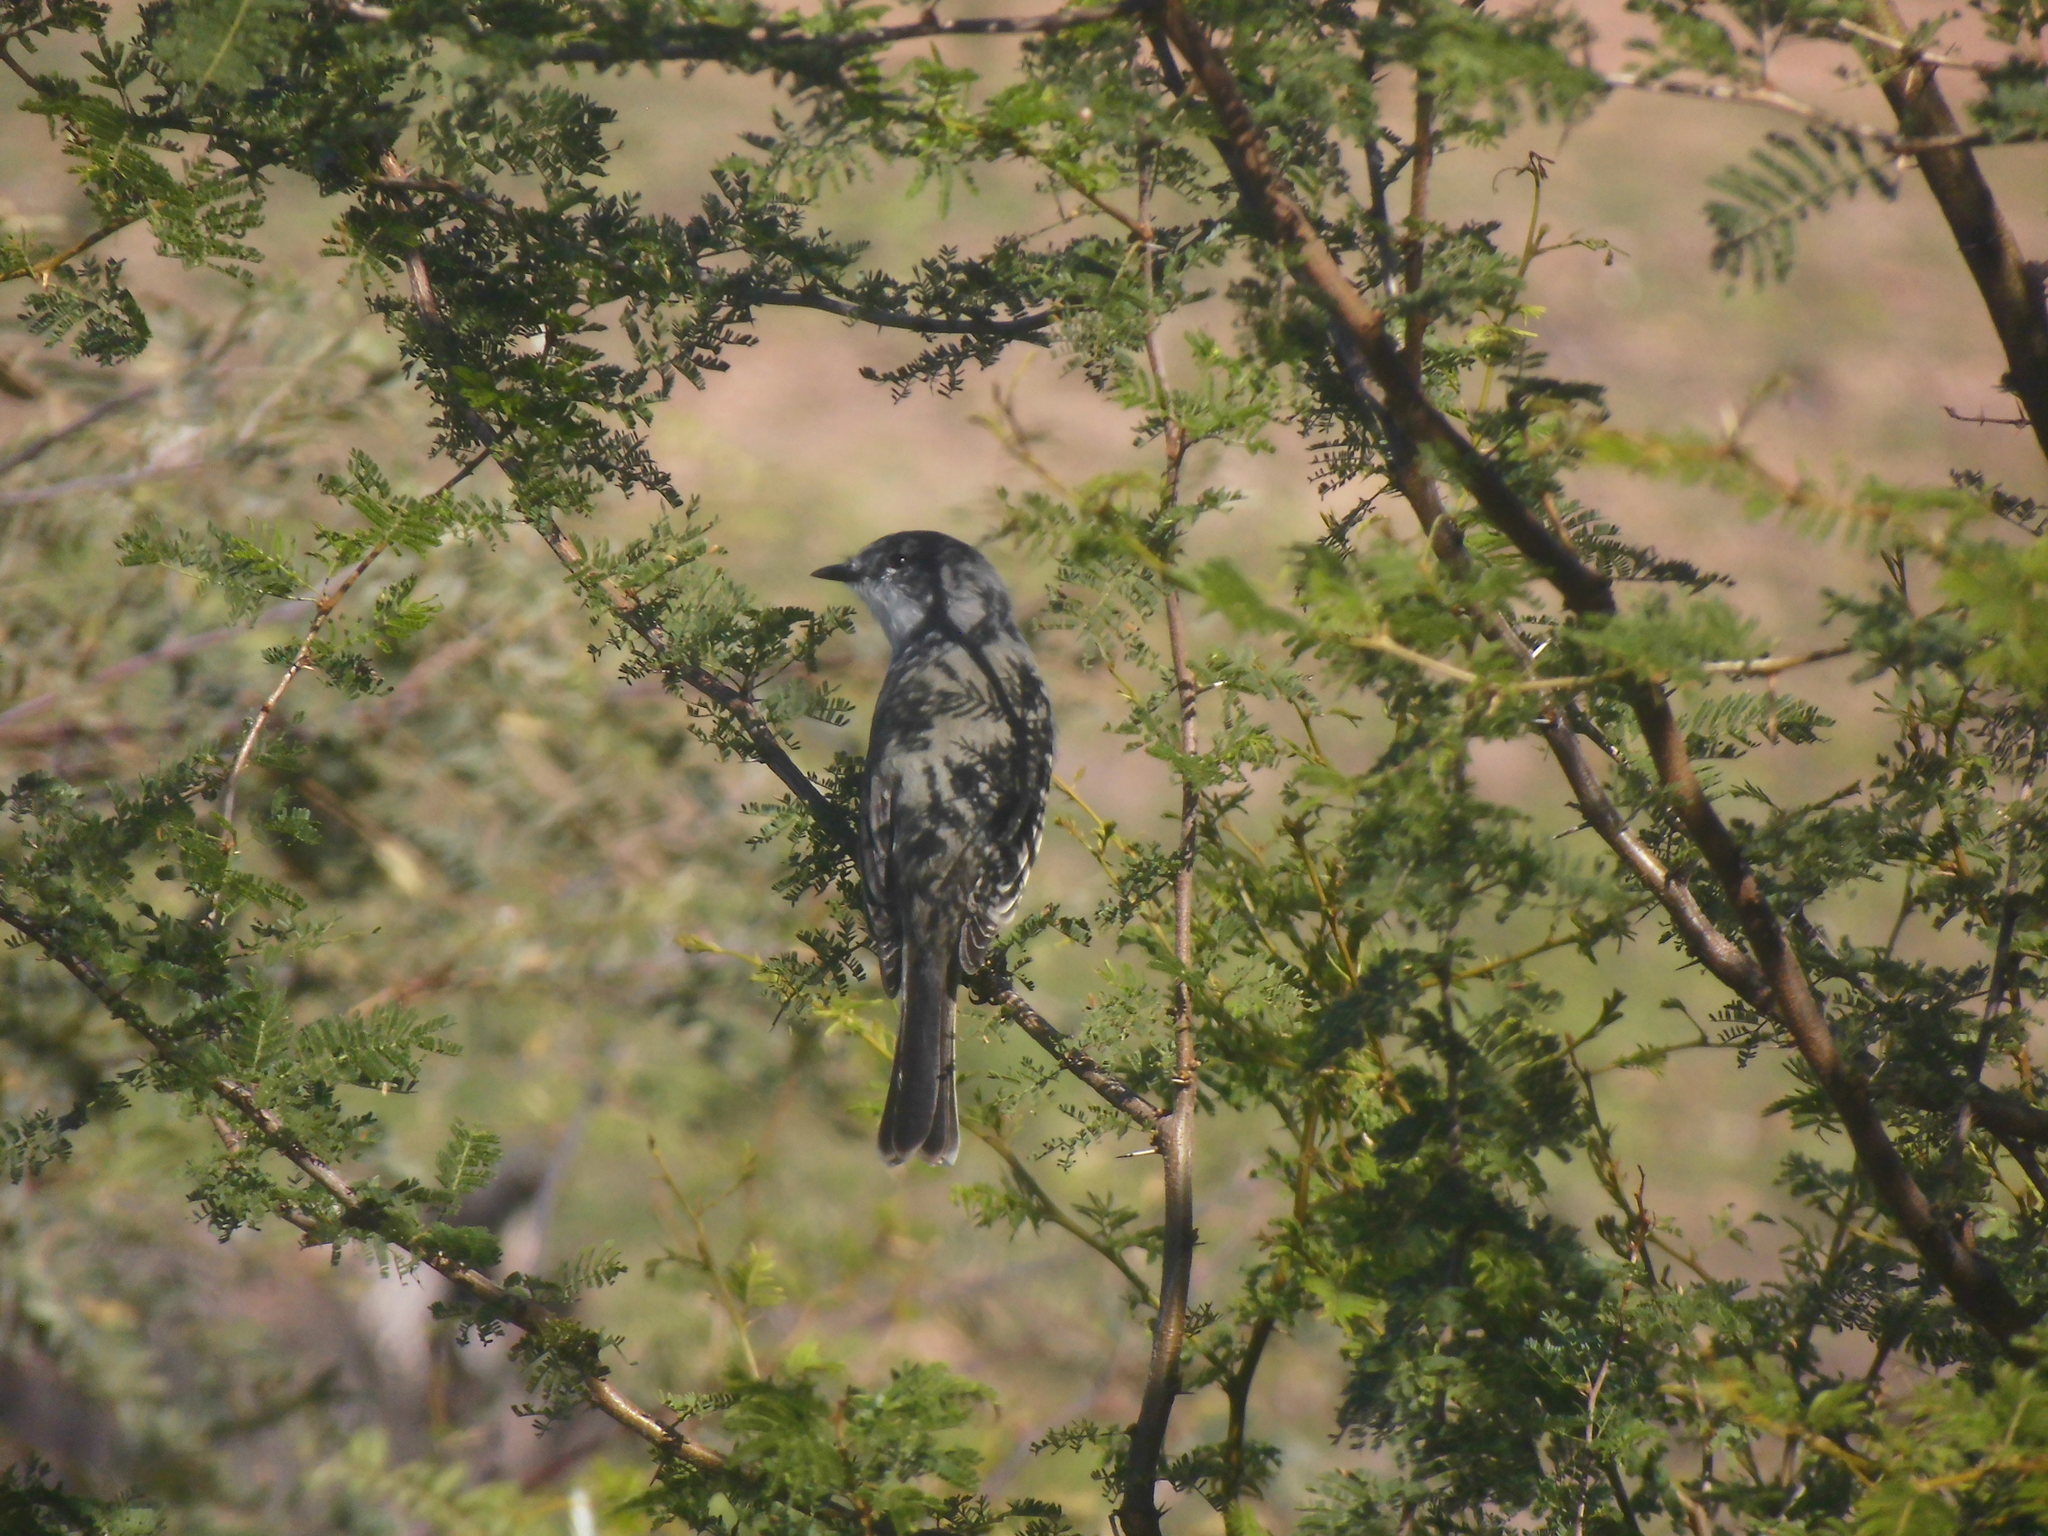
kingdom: Animalia
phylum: Chordata
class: Aves
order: Passeriformes
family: Tyrannidae
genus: Suiriri
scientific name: Suiriri suiriri
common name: Suiriri flycatcher
